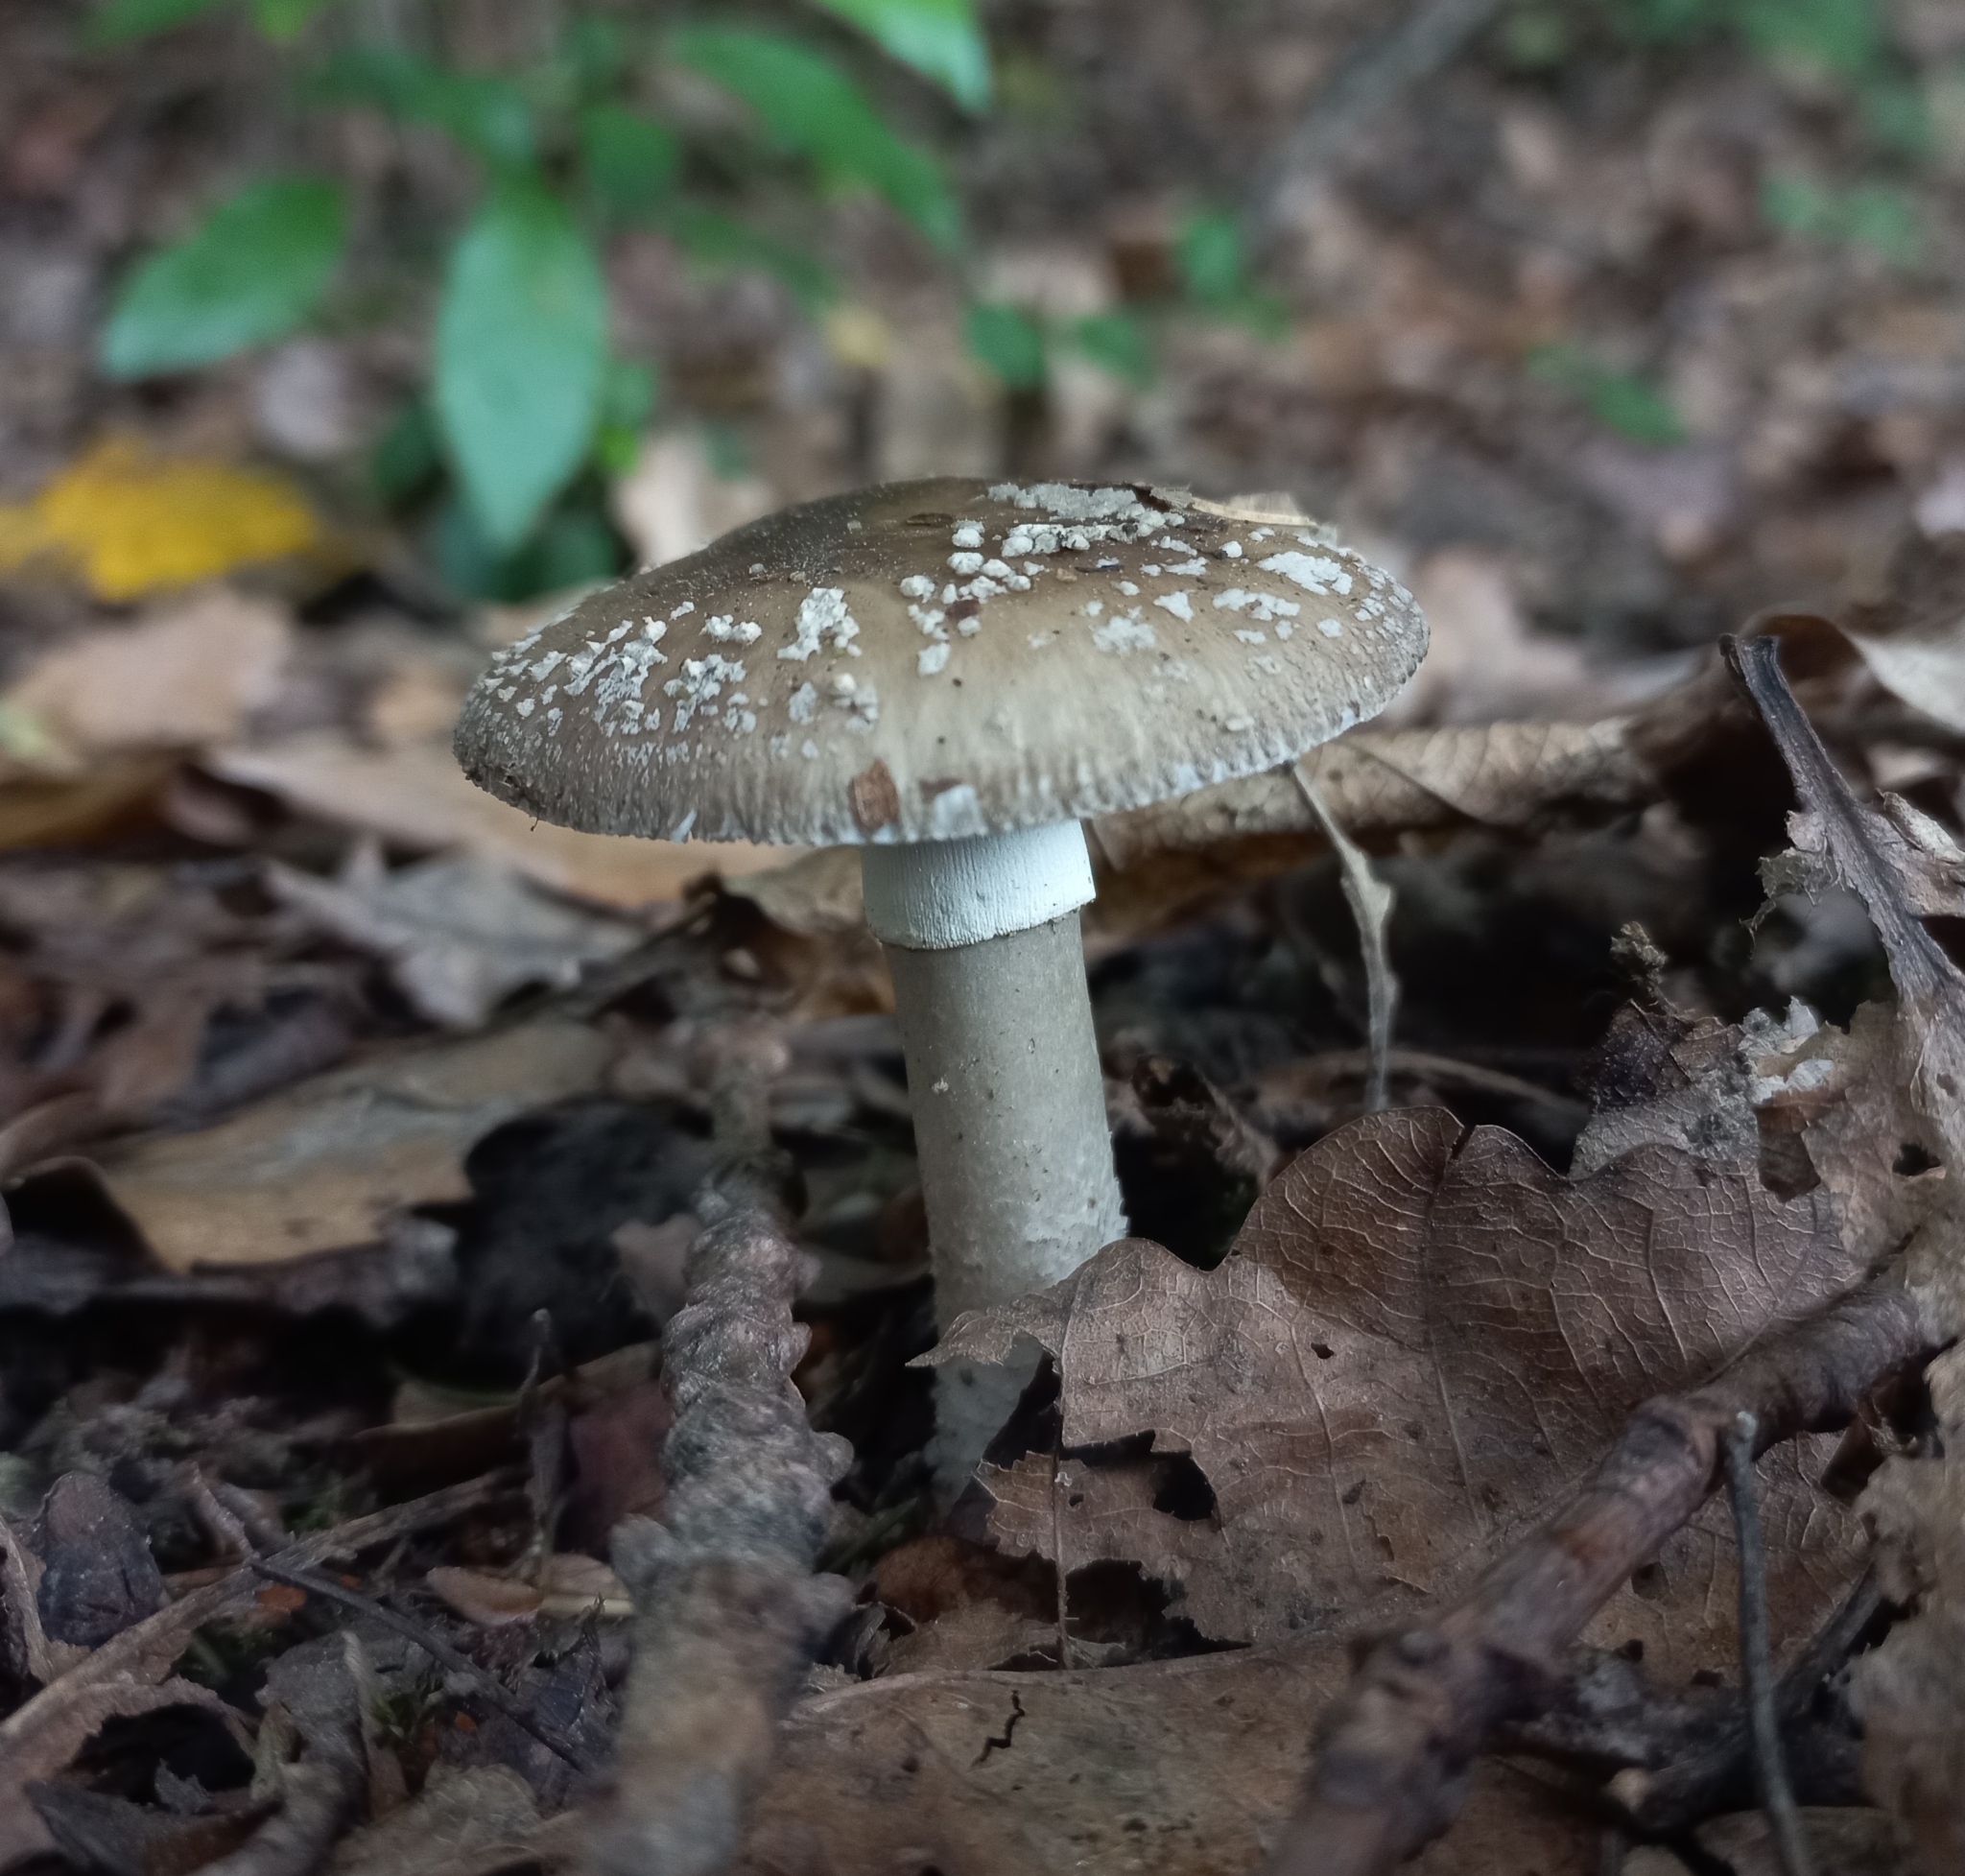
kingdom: Fungi
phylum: Basidiomycota
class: Agaricomycetes
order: Agaricales
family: Amanitaceae
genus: Amanita
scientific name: Amanita nothofagi
